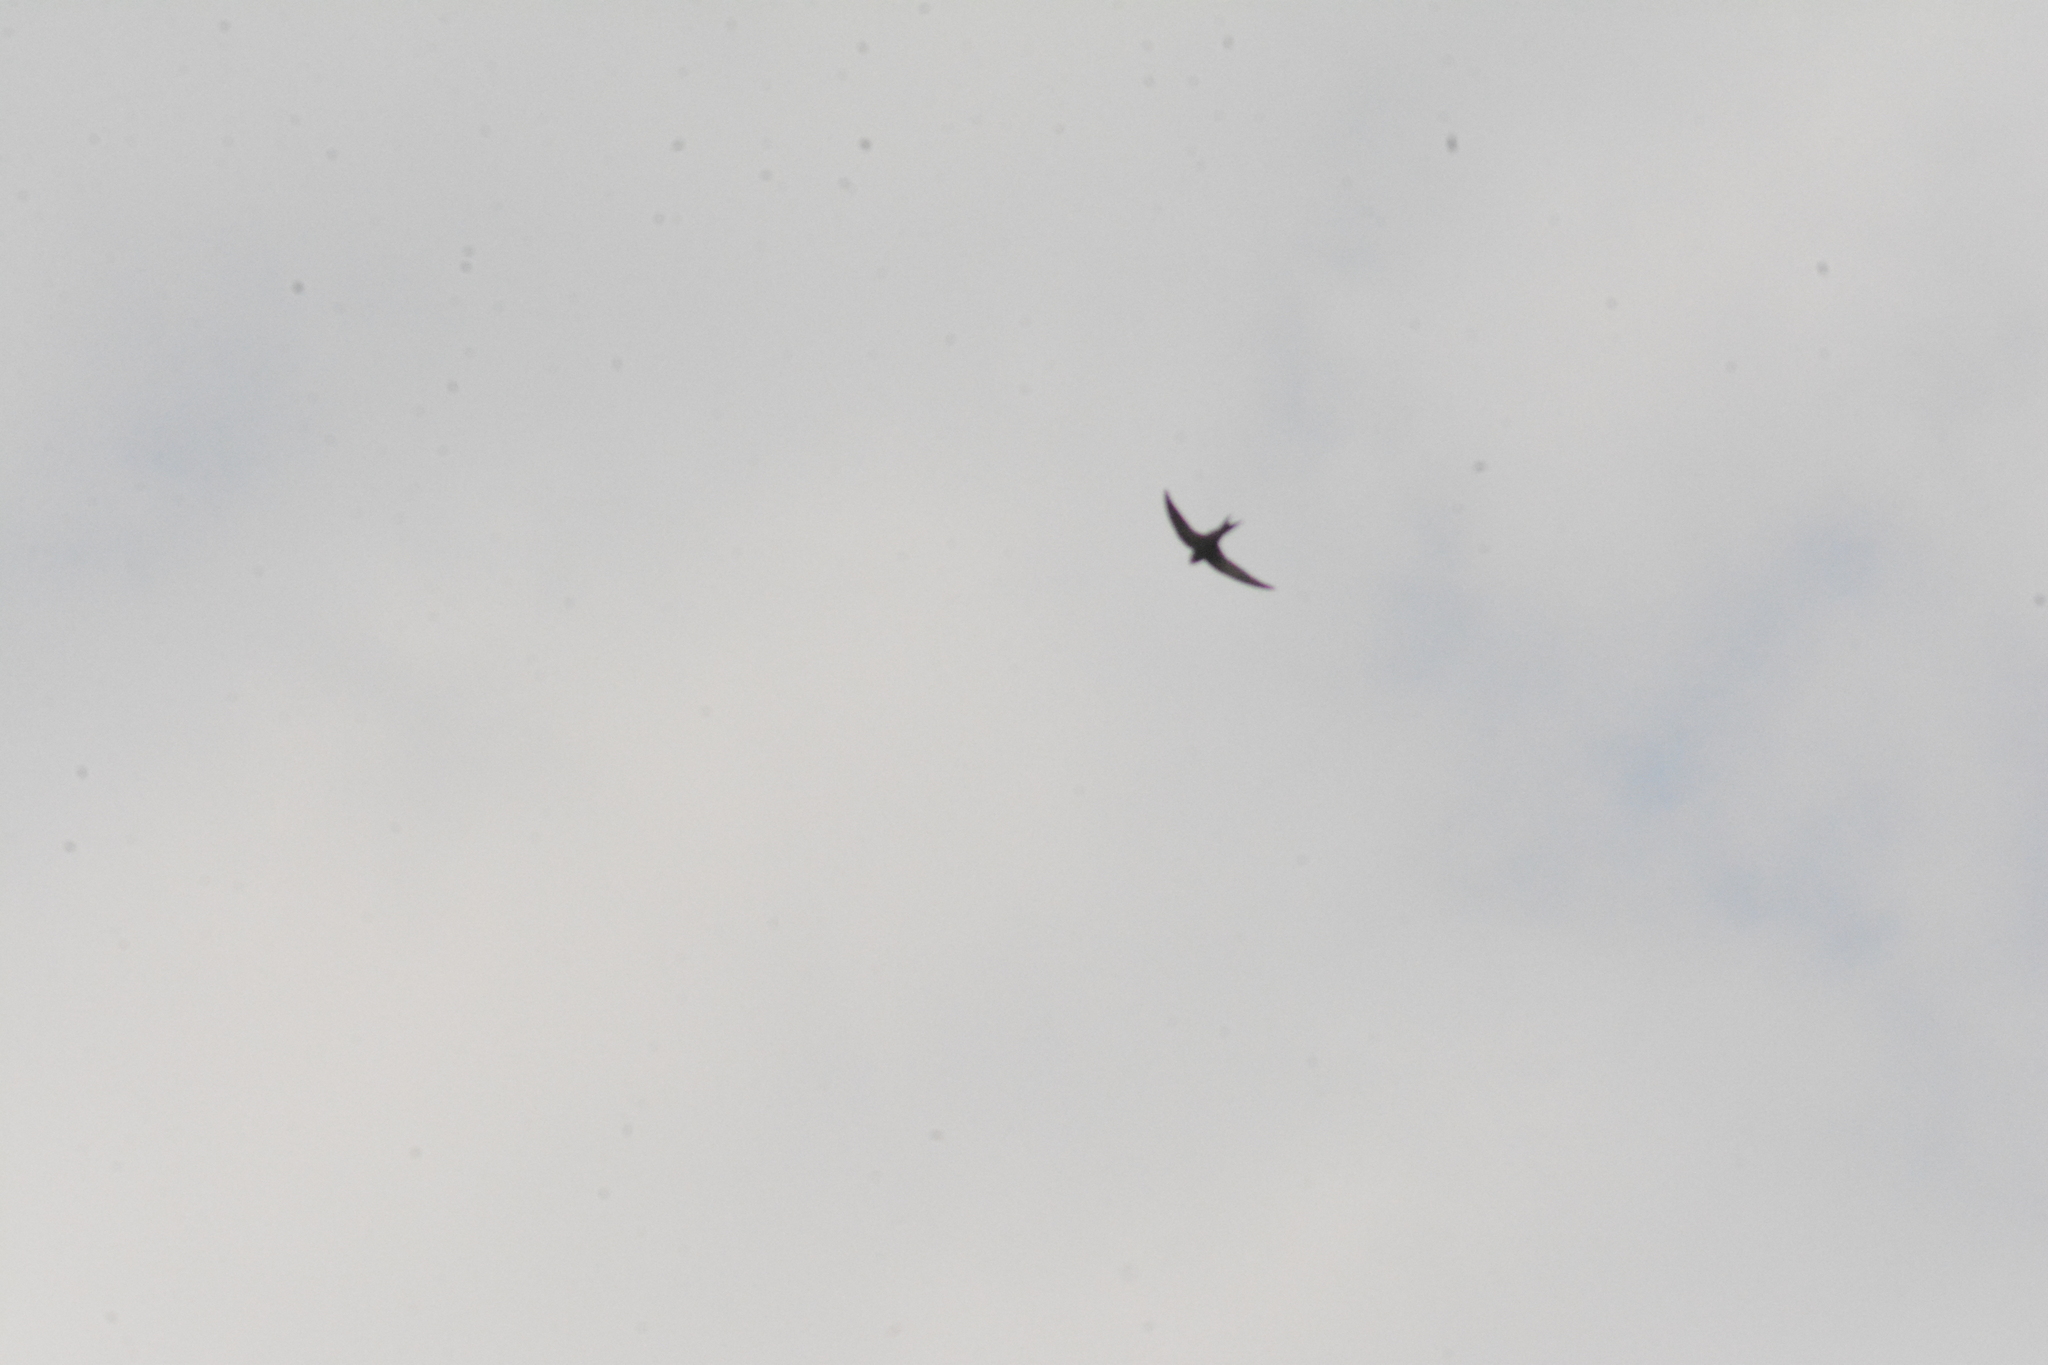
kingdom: Animalia
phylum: Chordata
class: Aves
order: Apodiformes
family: Apodidae
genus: Apus
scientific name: Apus apus
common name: Common swift
